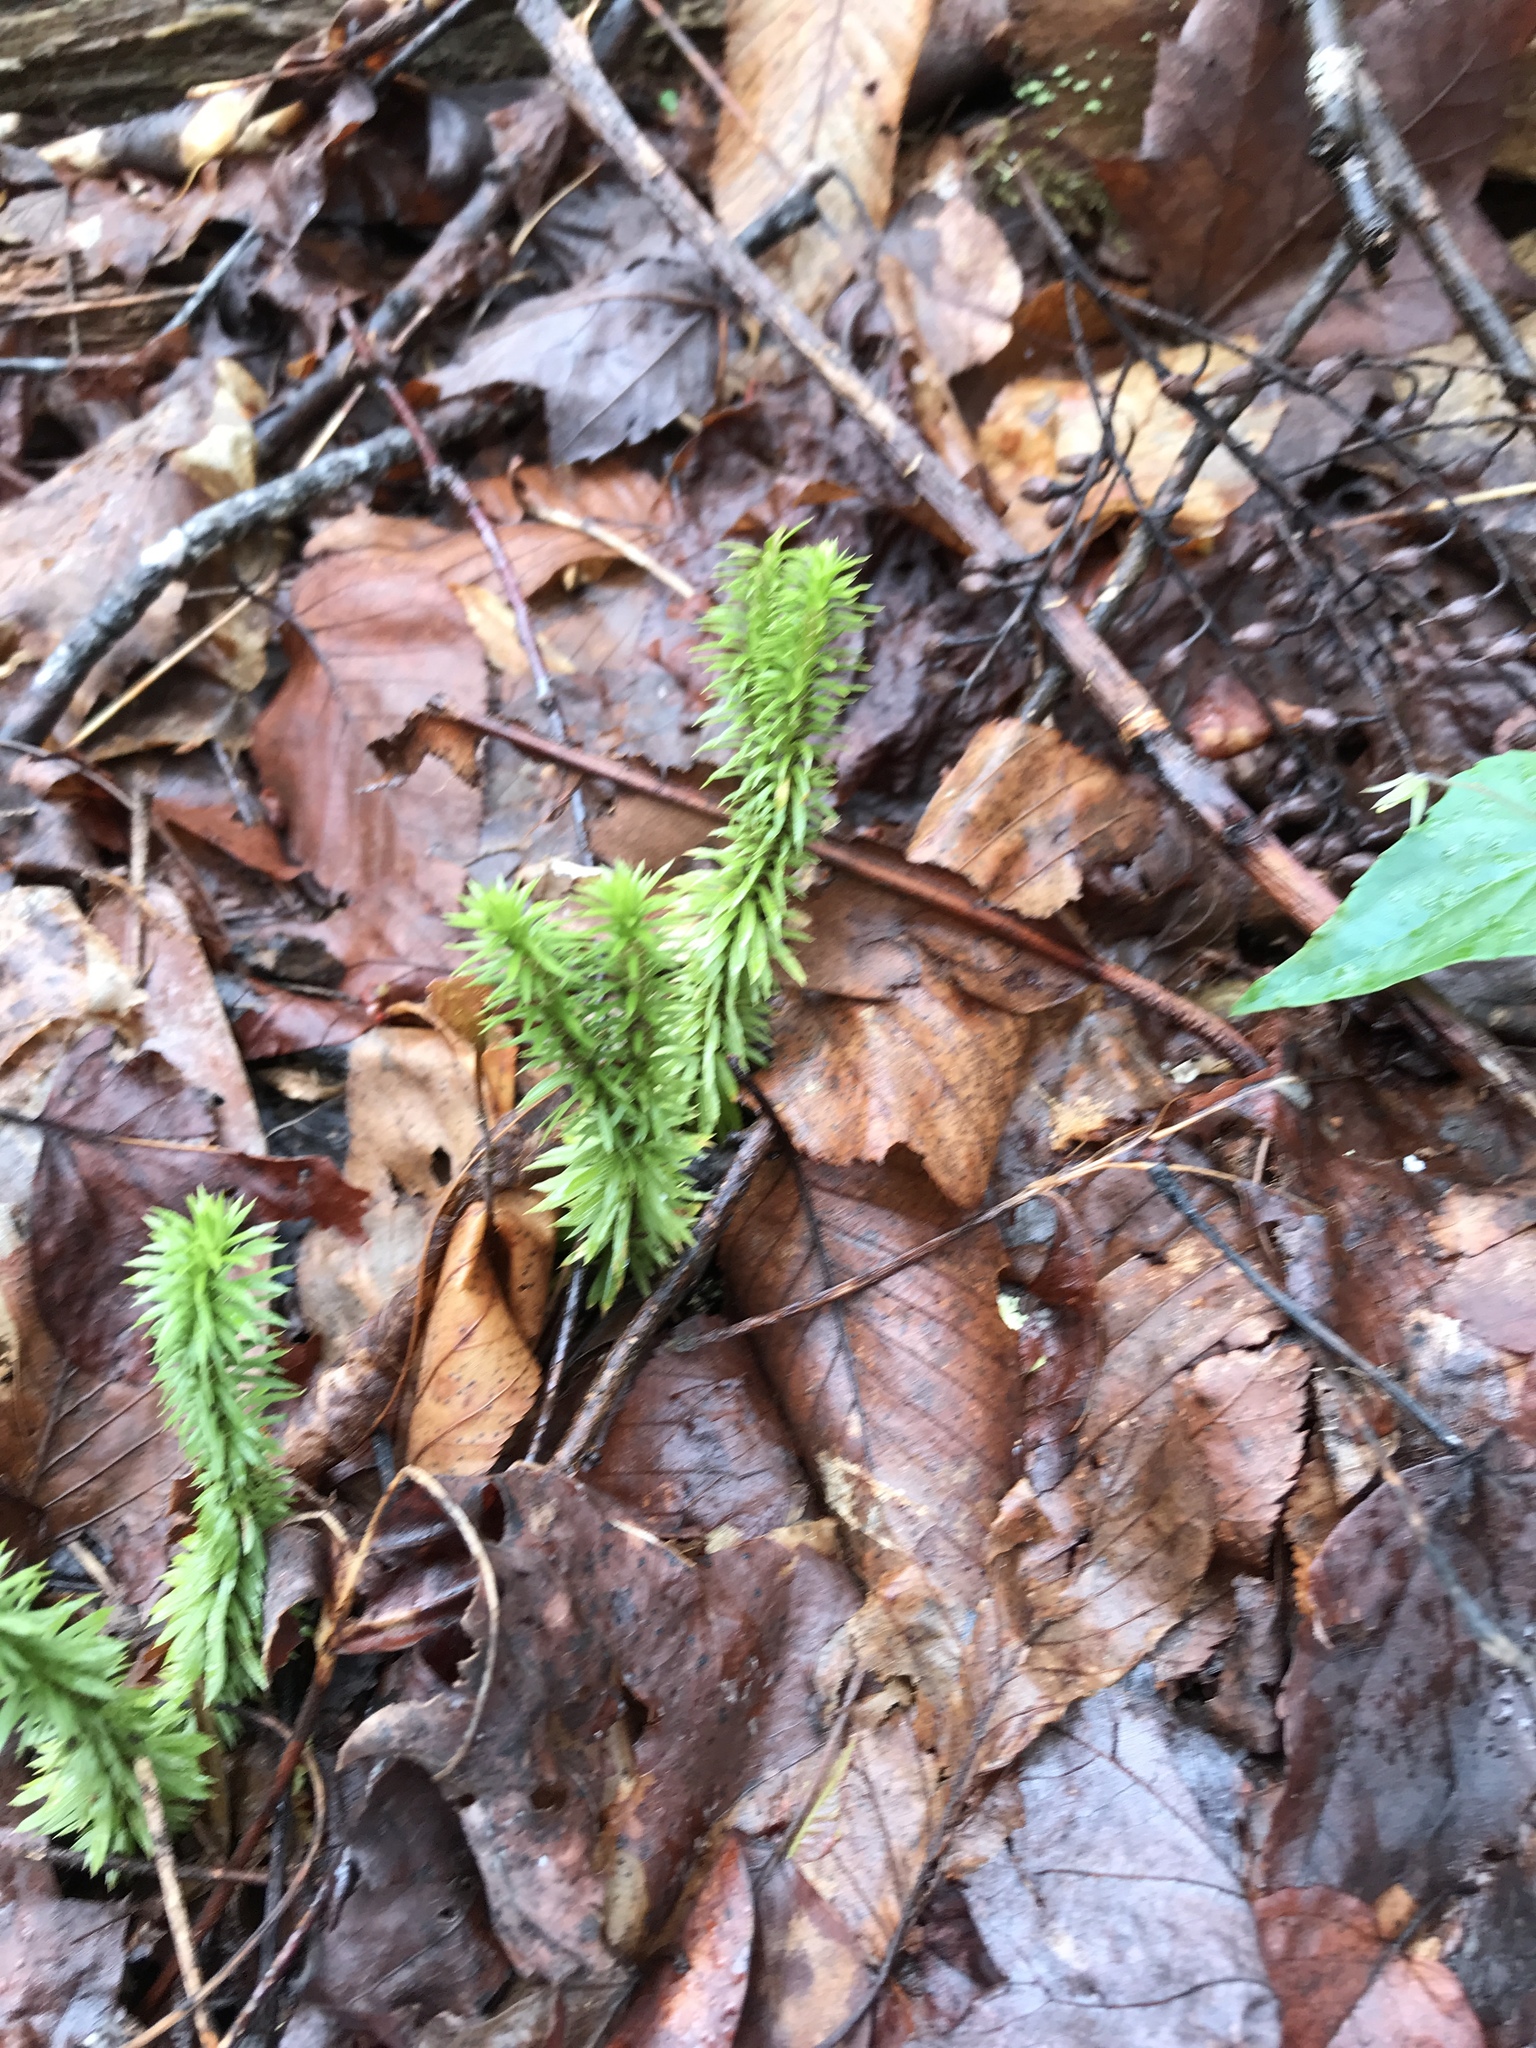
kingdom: Plantae
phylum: Tracheophyta
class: Lycopodiopsida
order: Lycopodiales
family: Lycopodiaceae
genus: Huperzia
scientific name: Huperzia lucidula
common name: Shining clubmoss
